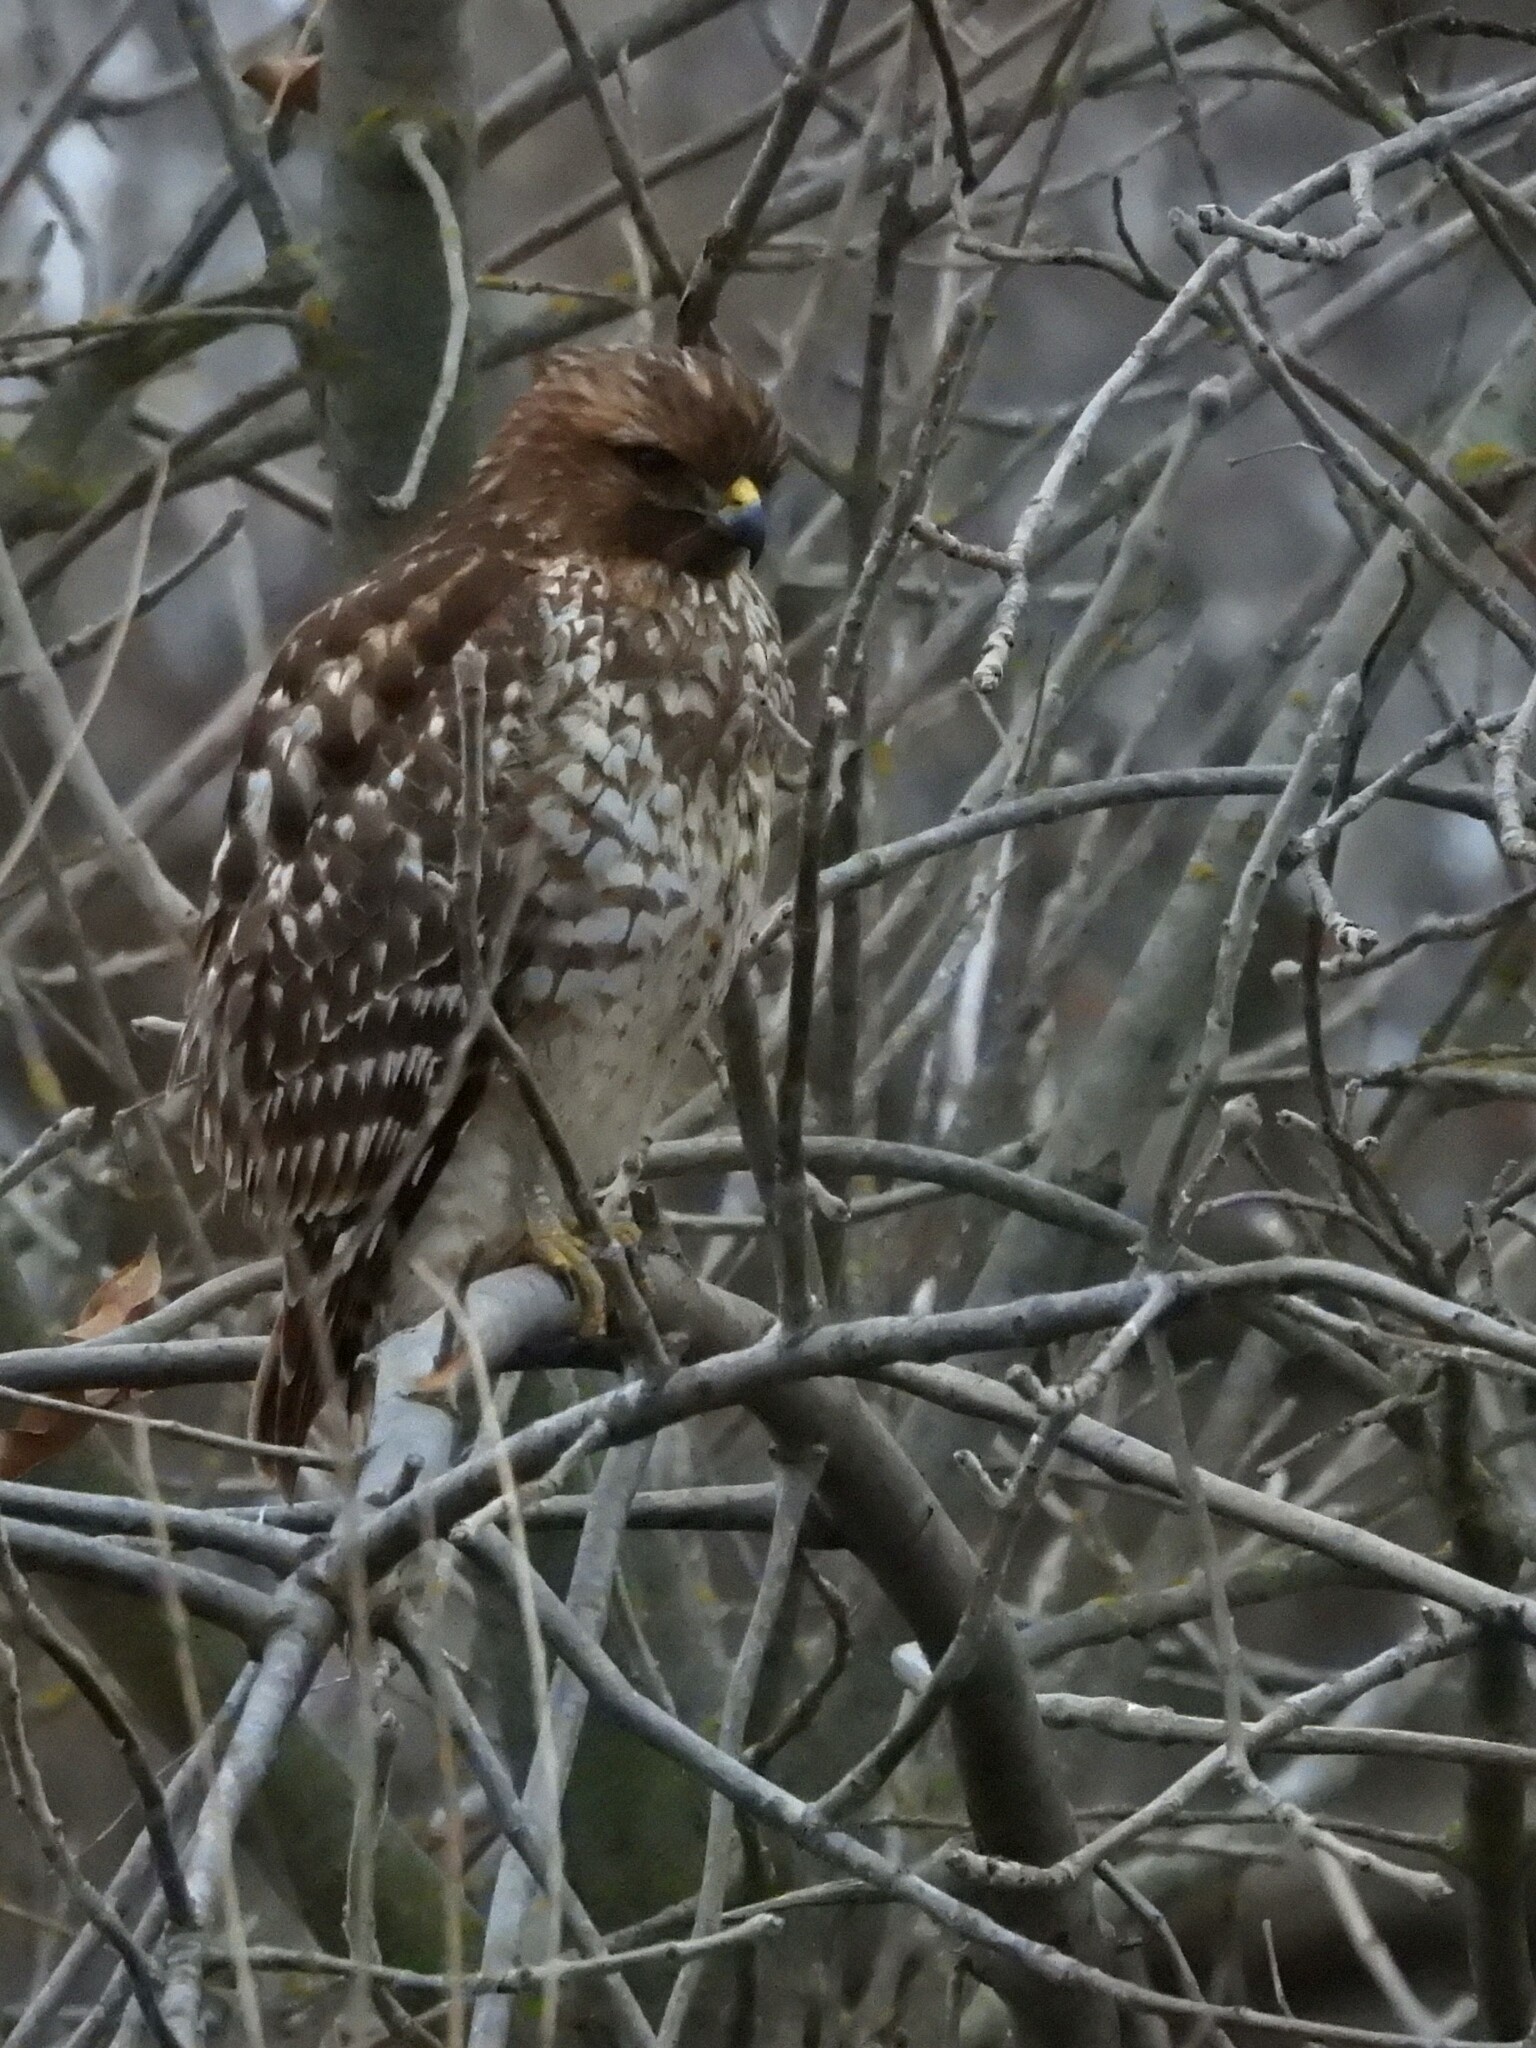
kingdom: Animalia
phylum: Chordata
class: Aves
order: Accipitriformes
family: Accipitridae
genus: Buteo
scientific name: Buteo lineatus
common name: Red-shouldered hawk
